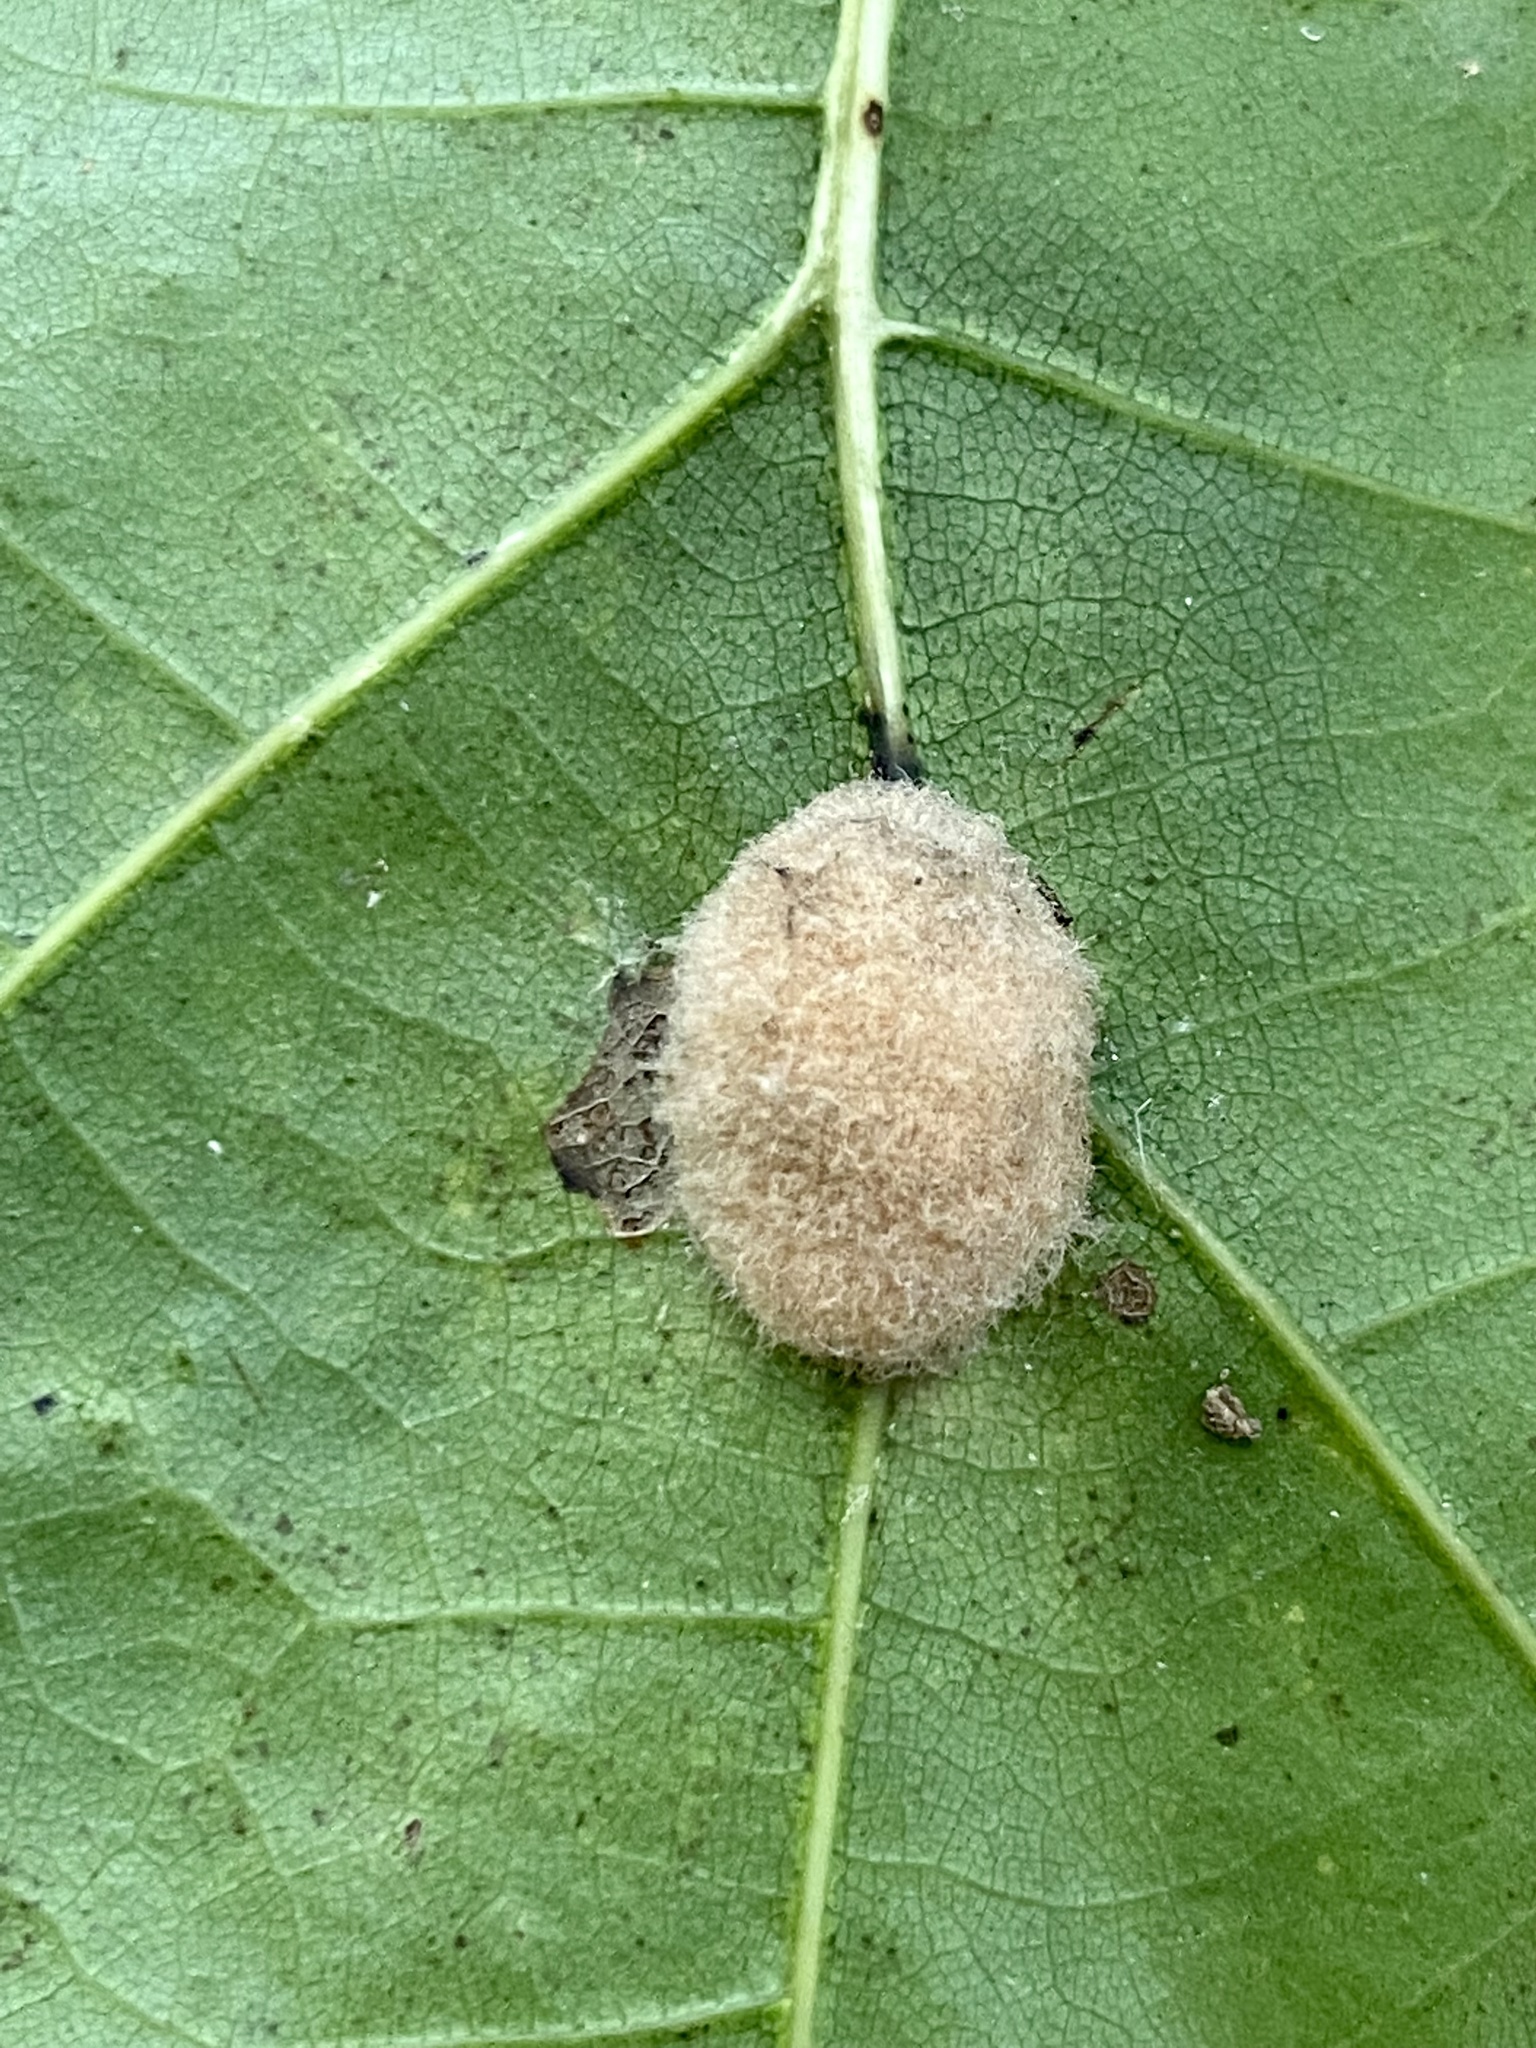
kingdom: Animalia
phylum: Arthropoda
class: Insecta
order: Hymenoptera
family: Cynipidae
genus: Callirhytis
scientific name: Callirhytis
